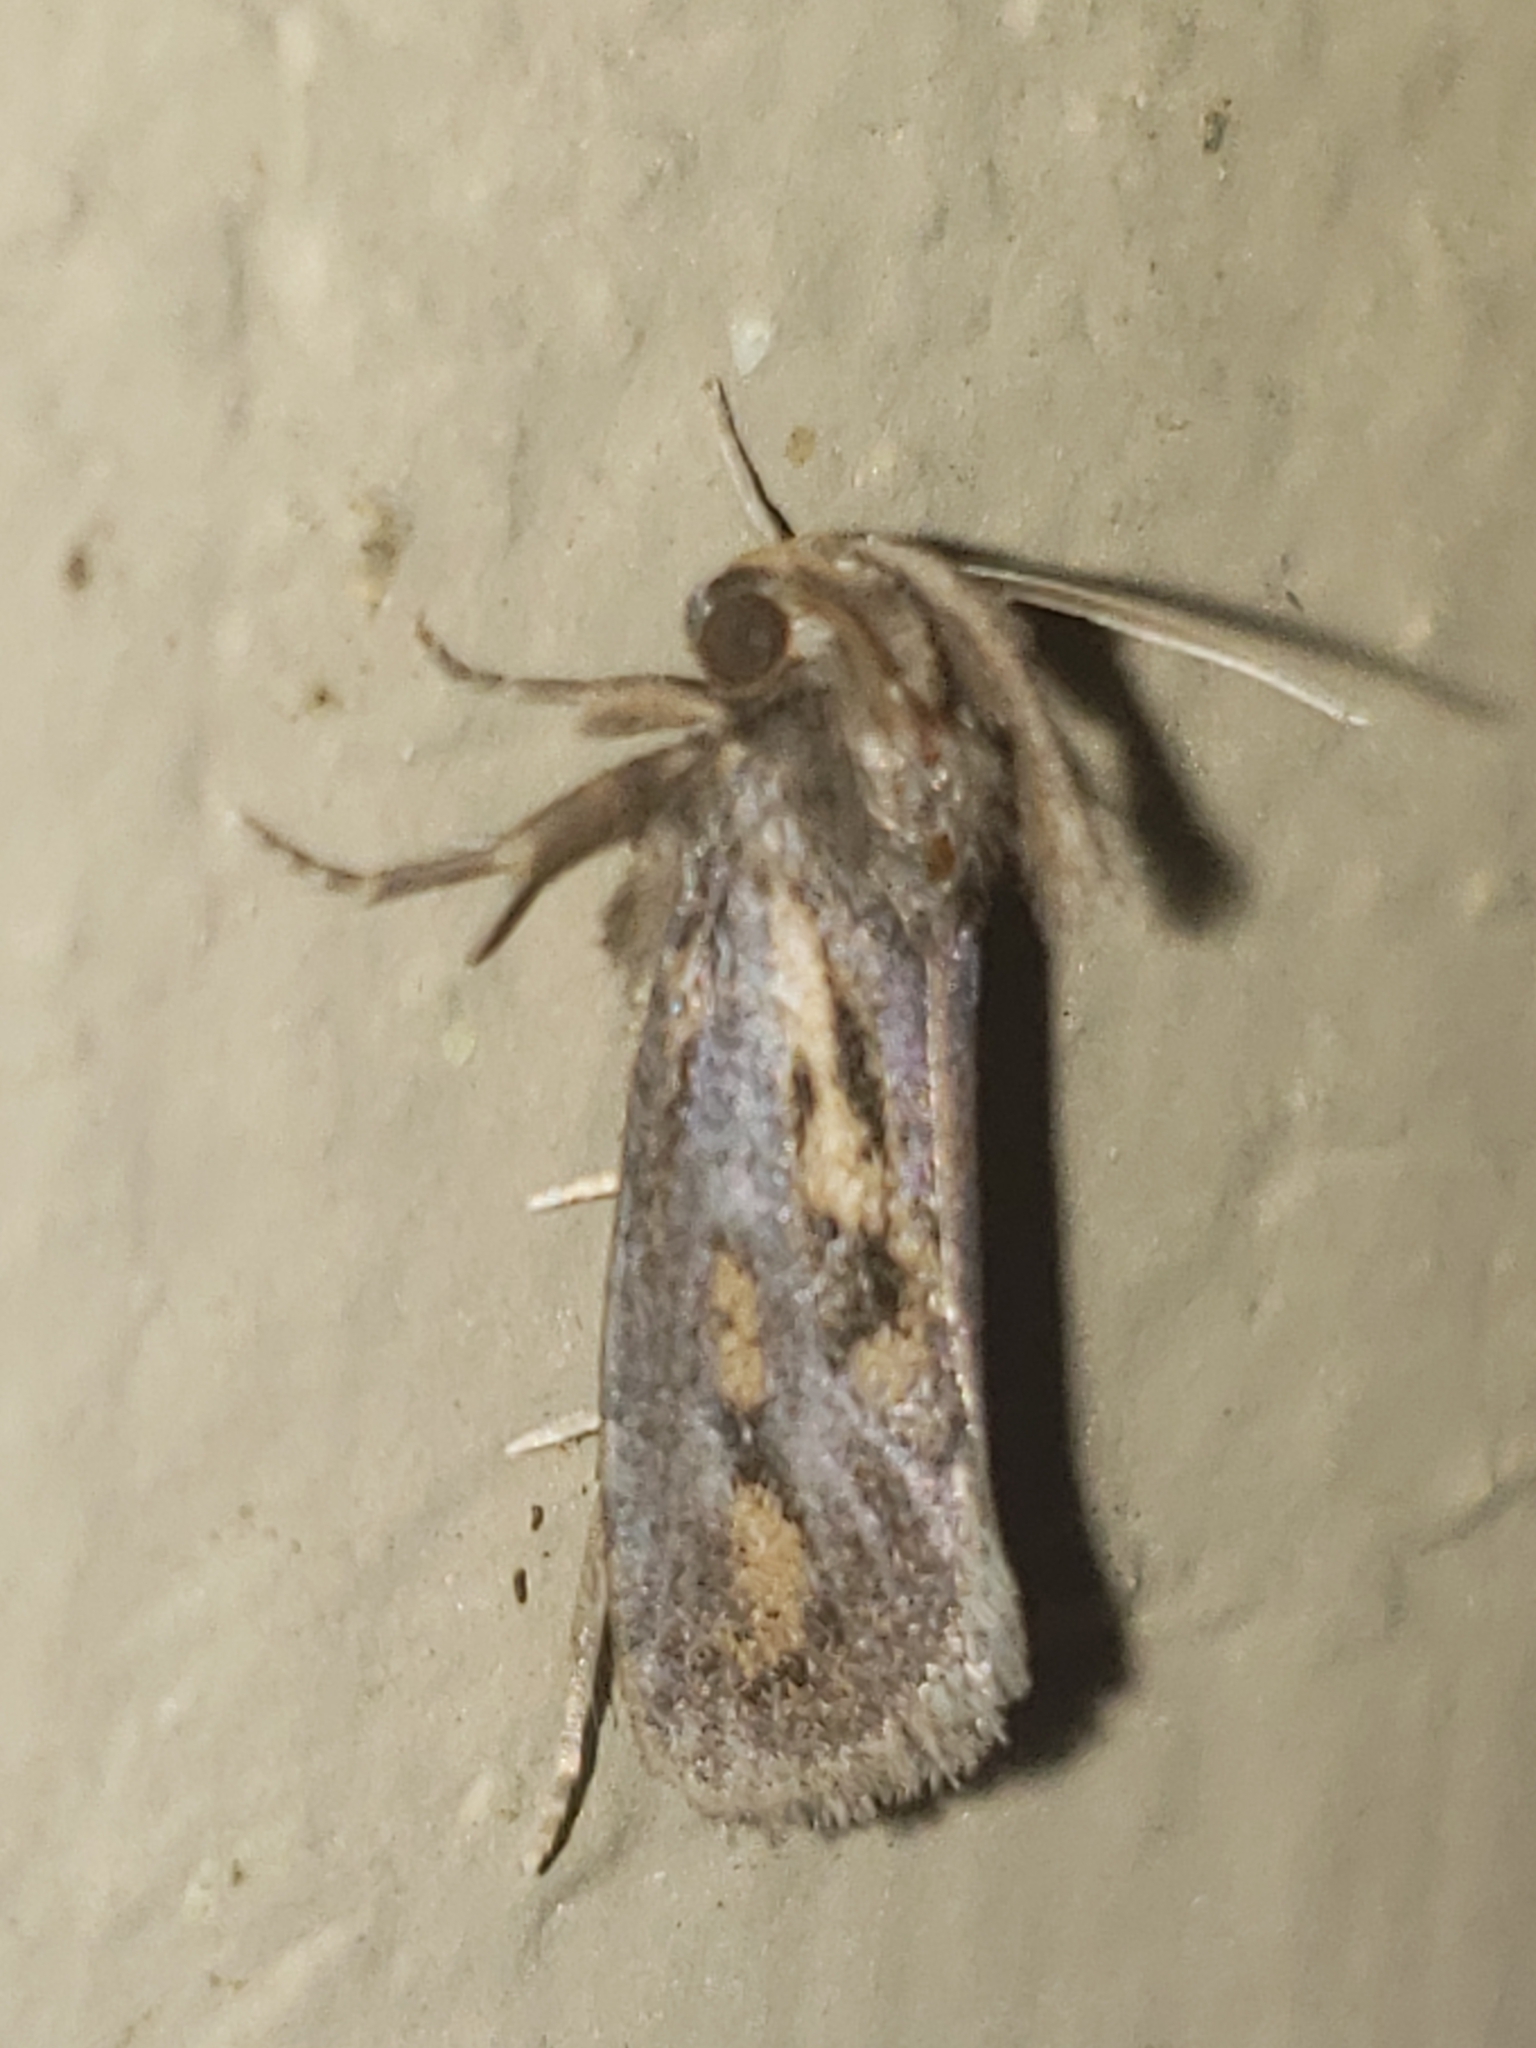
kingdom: Animalia
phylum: Arthropoda
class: Insecta
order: Lepidoptera
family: Tineidae
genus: Acrolophus
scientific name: Acrolophus popeanella
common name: Clemens' grass tubeworm moth
